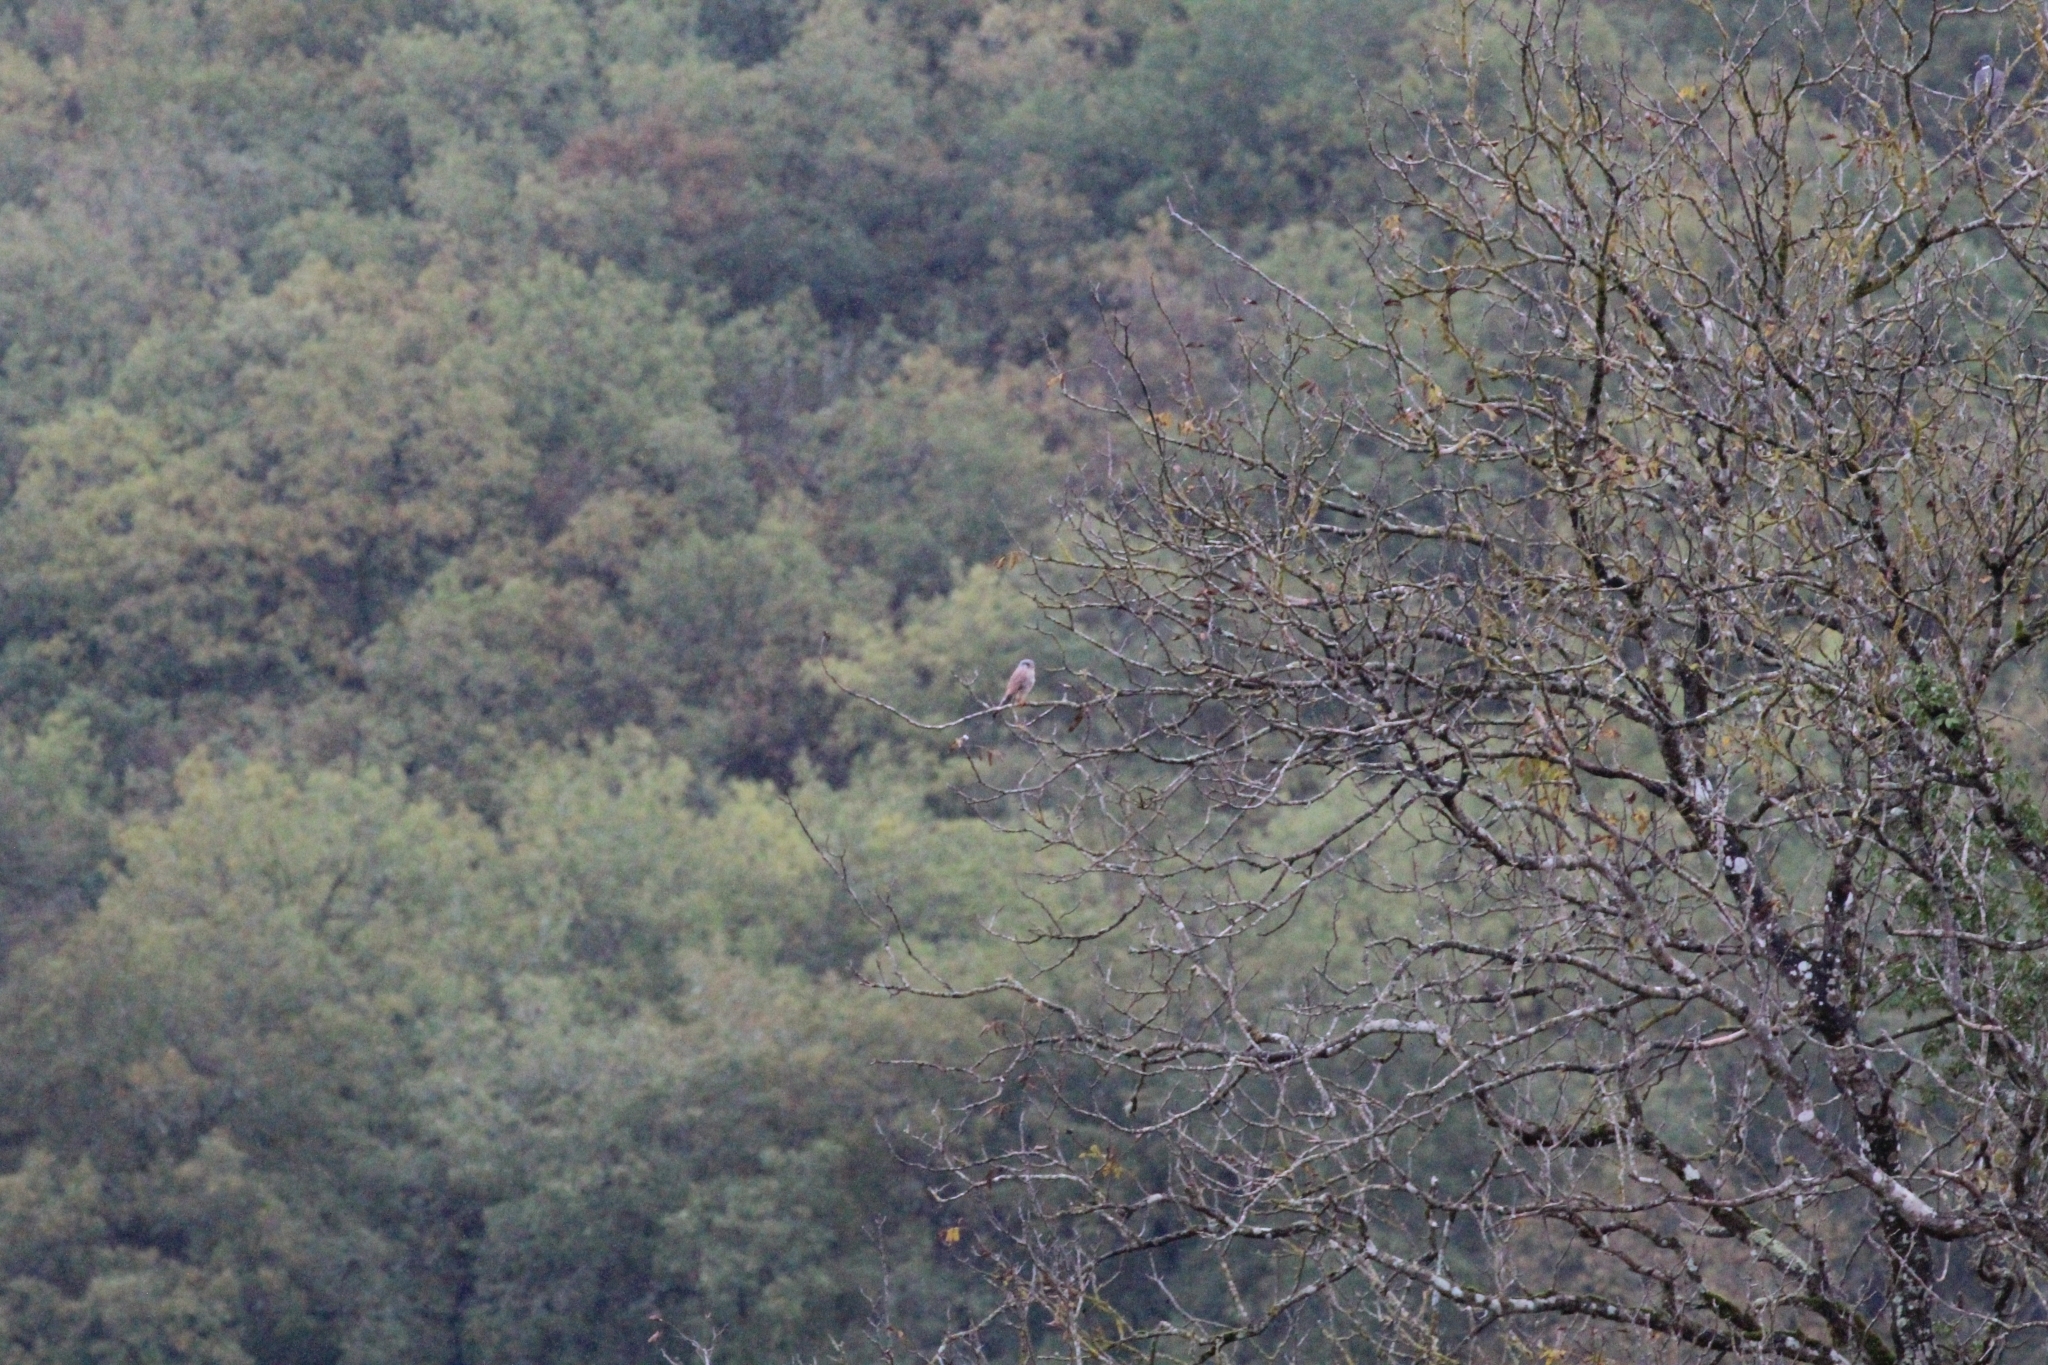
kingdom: Animalia
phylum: Chordata
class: Aves
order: Falconiformes
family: Falconidae
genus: Falco
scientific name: Falco tinnunculus
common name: Common kestrel
